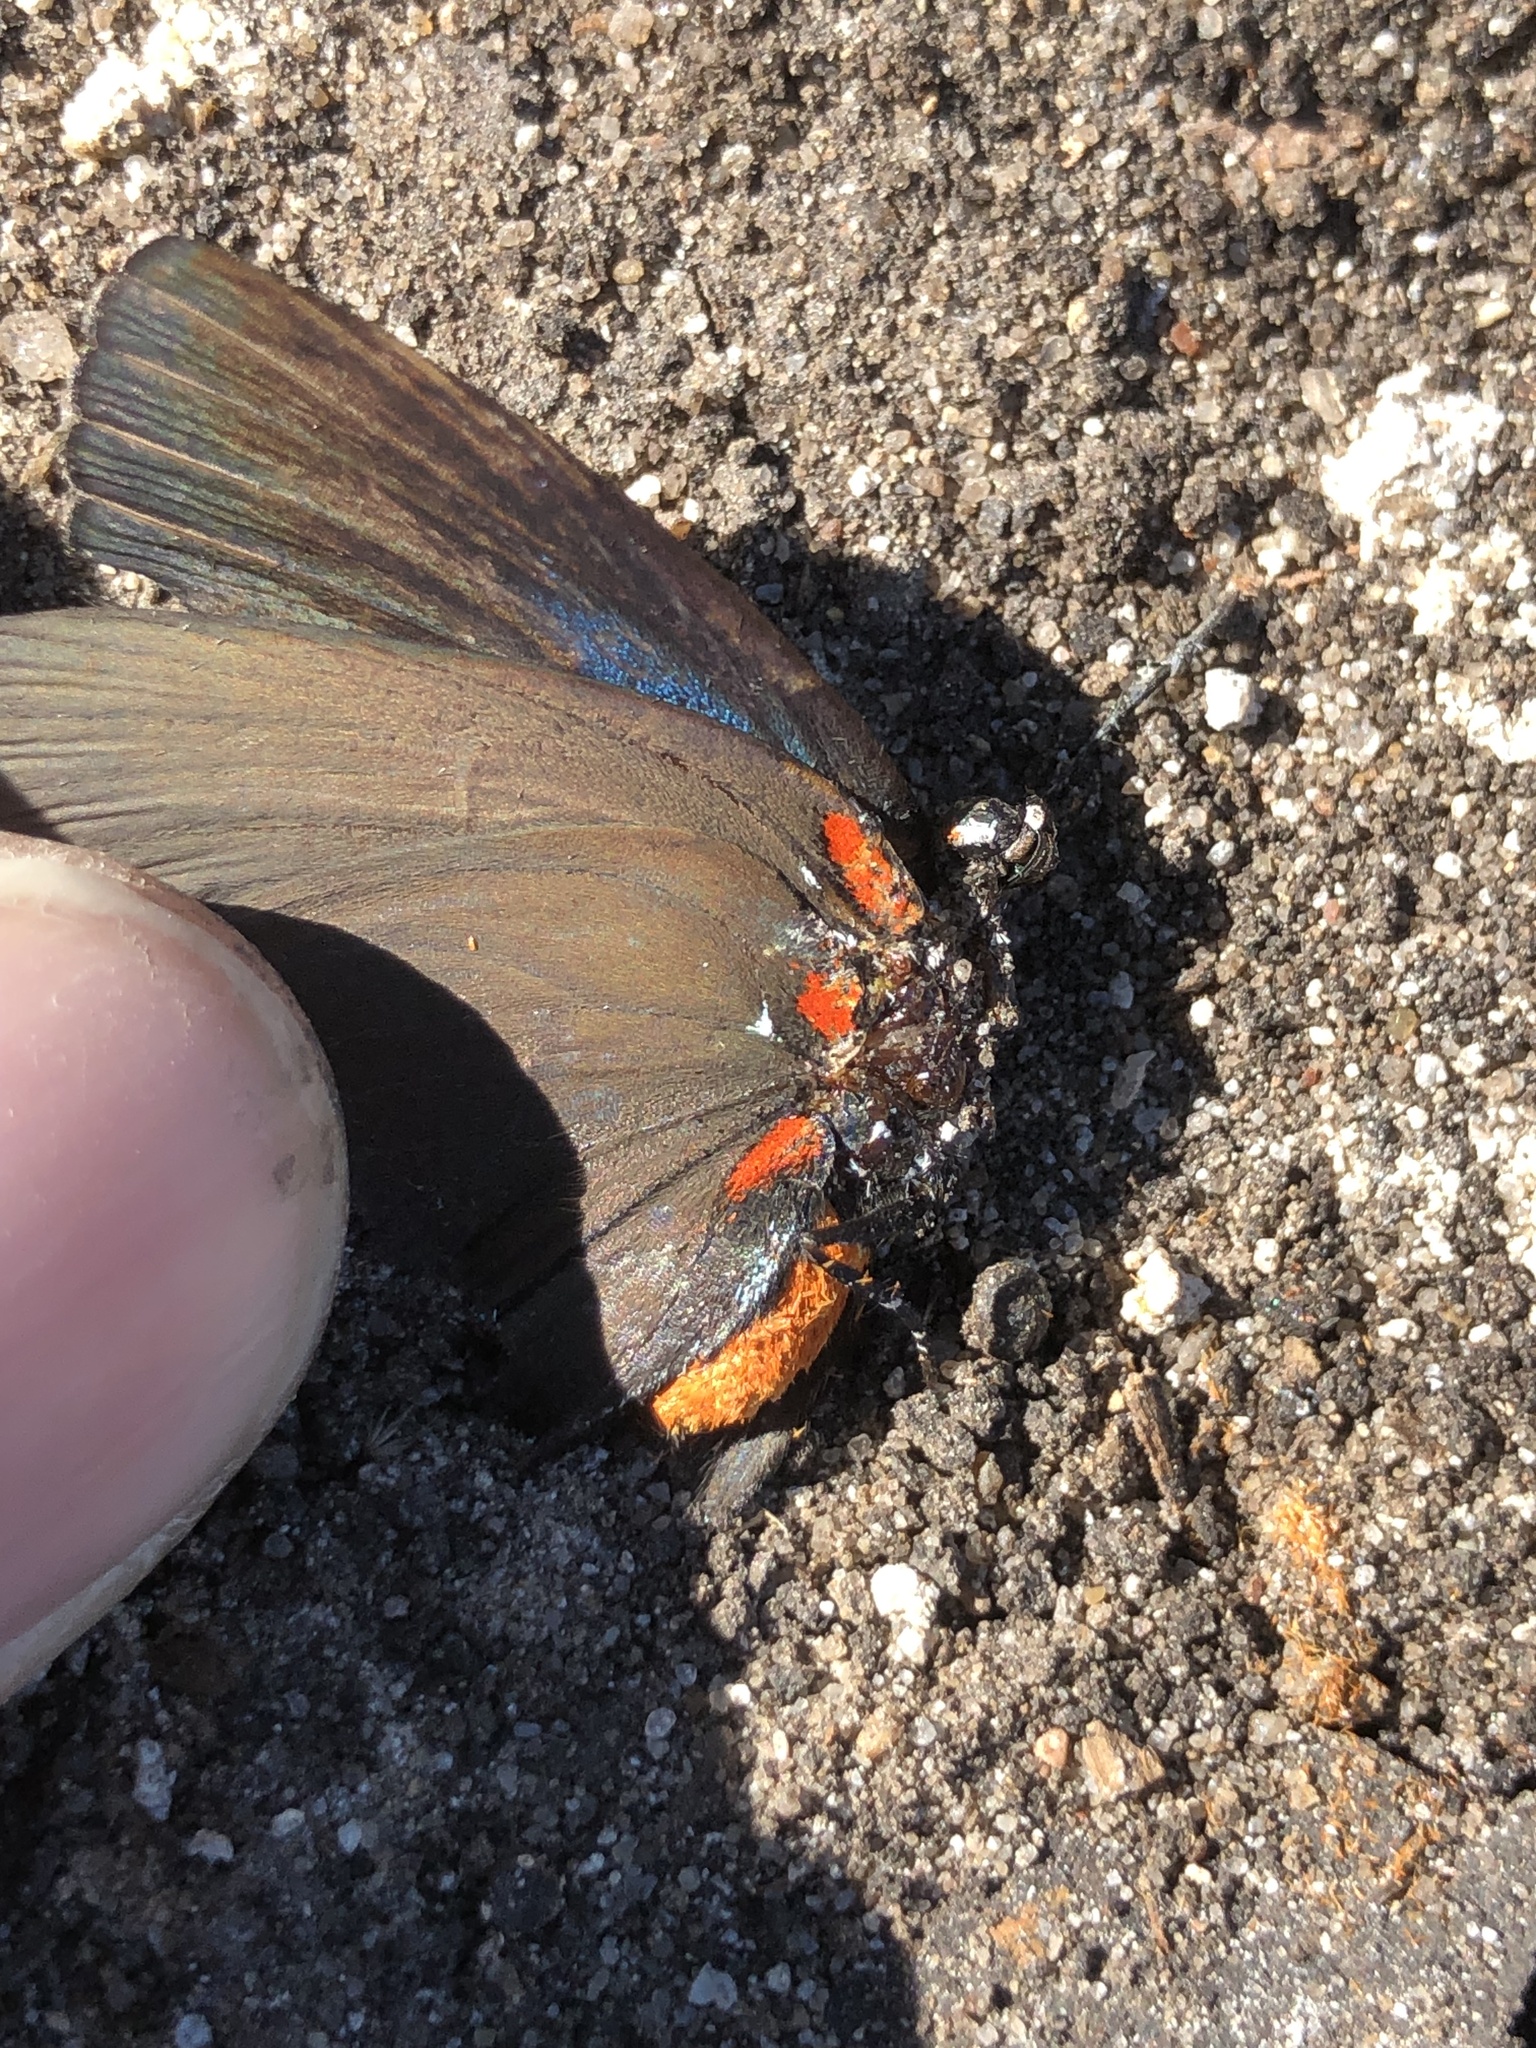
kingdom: Animalia
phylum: Arthropoda
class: Insecta
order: Lepidoptera
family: Lycaenidae
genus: Atlides
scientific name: Atlides halesus
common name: Great purple hairstreak
